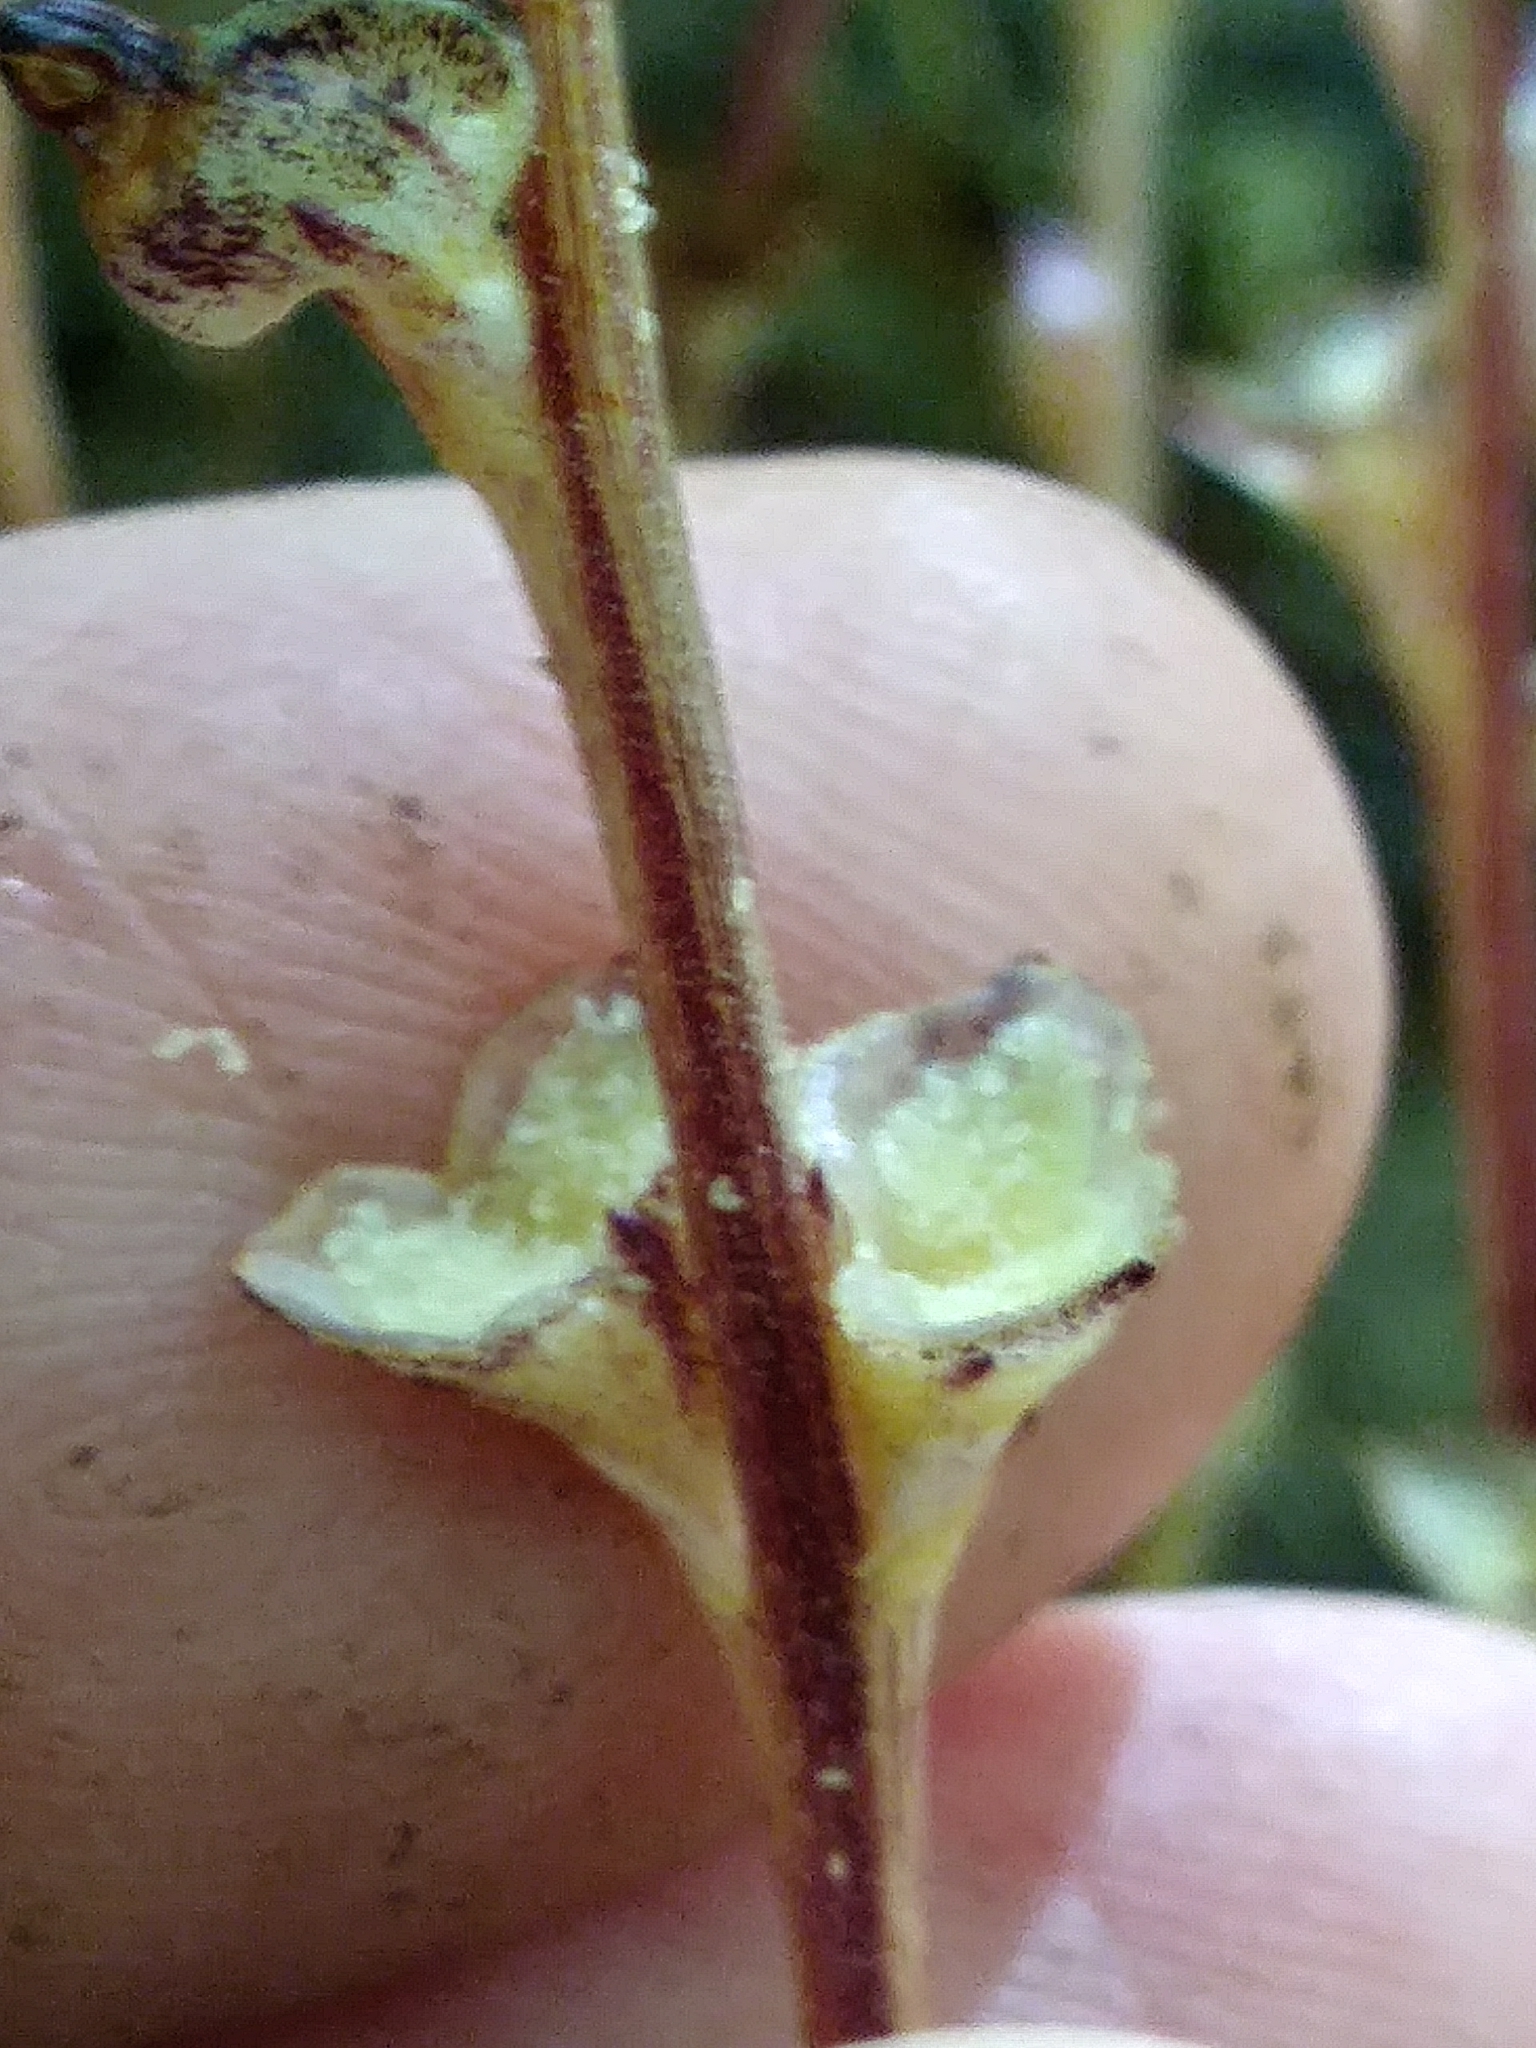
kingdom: Plantae
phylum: Tracheophyta
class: Magnoliopsida
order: Lamiales
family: Orobanchaceae
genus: Epifagus
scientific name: Epifagus virginiana
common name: Beechdrops
